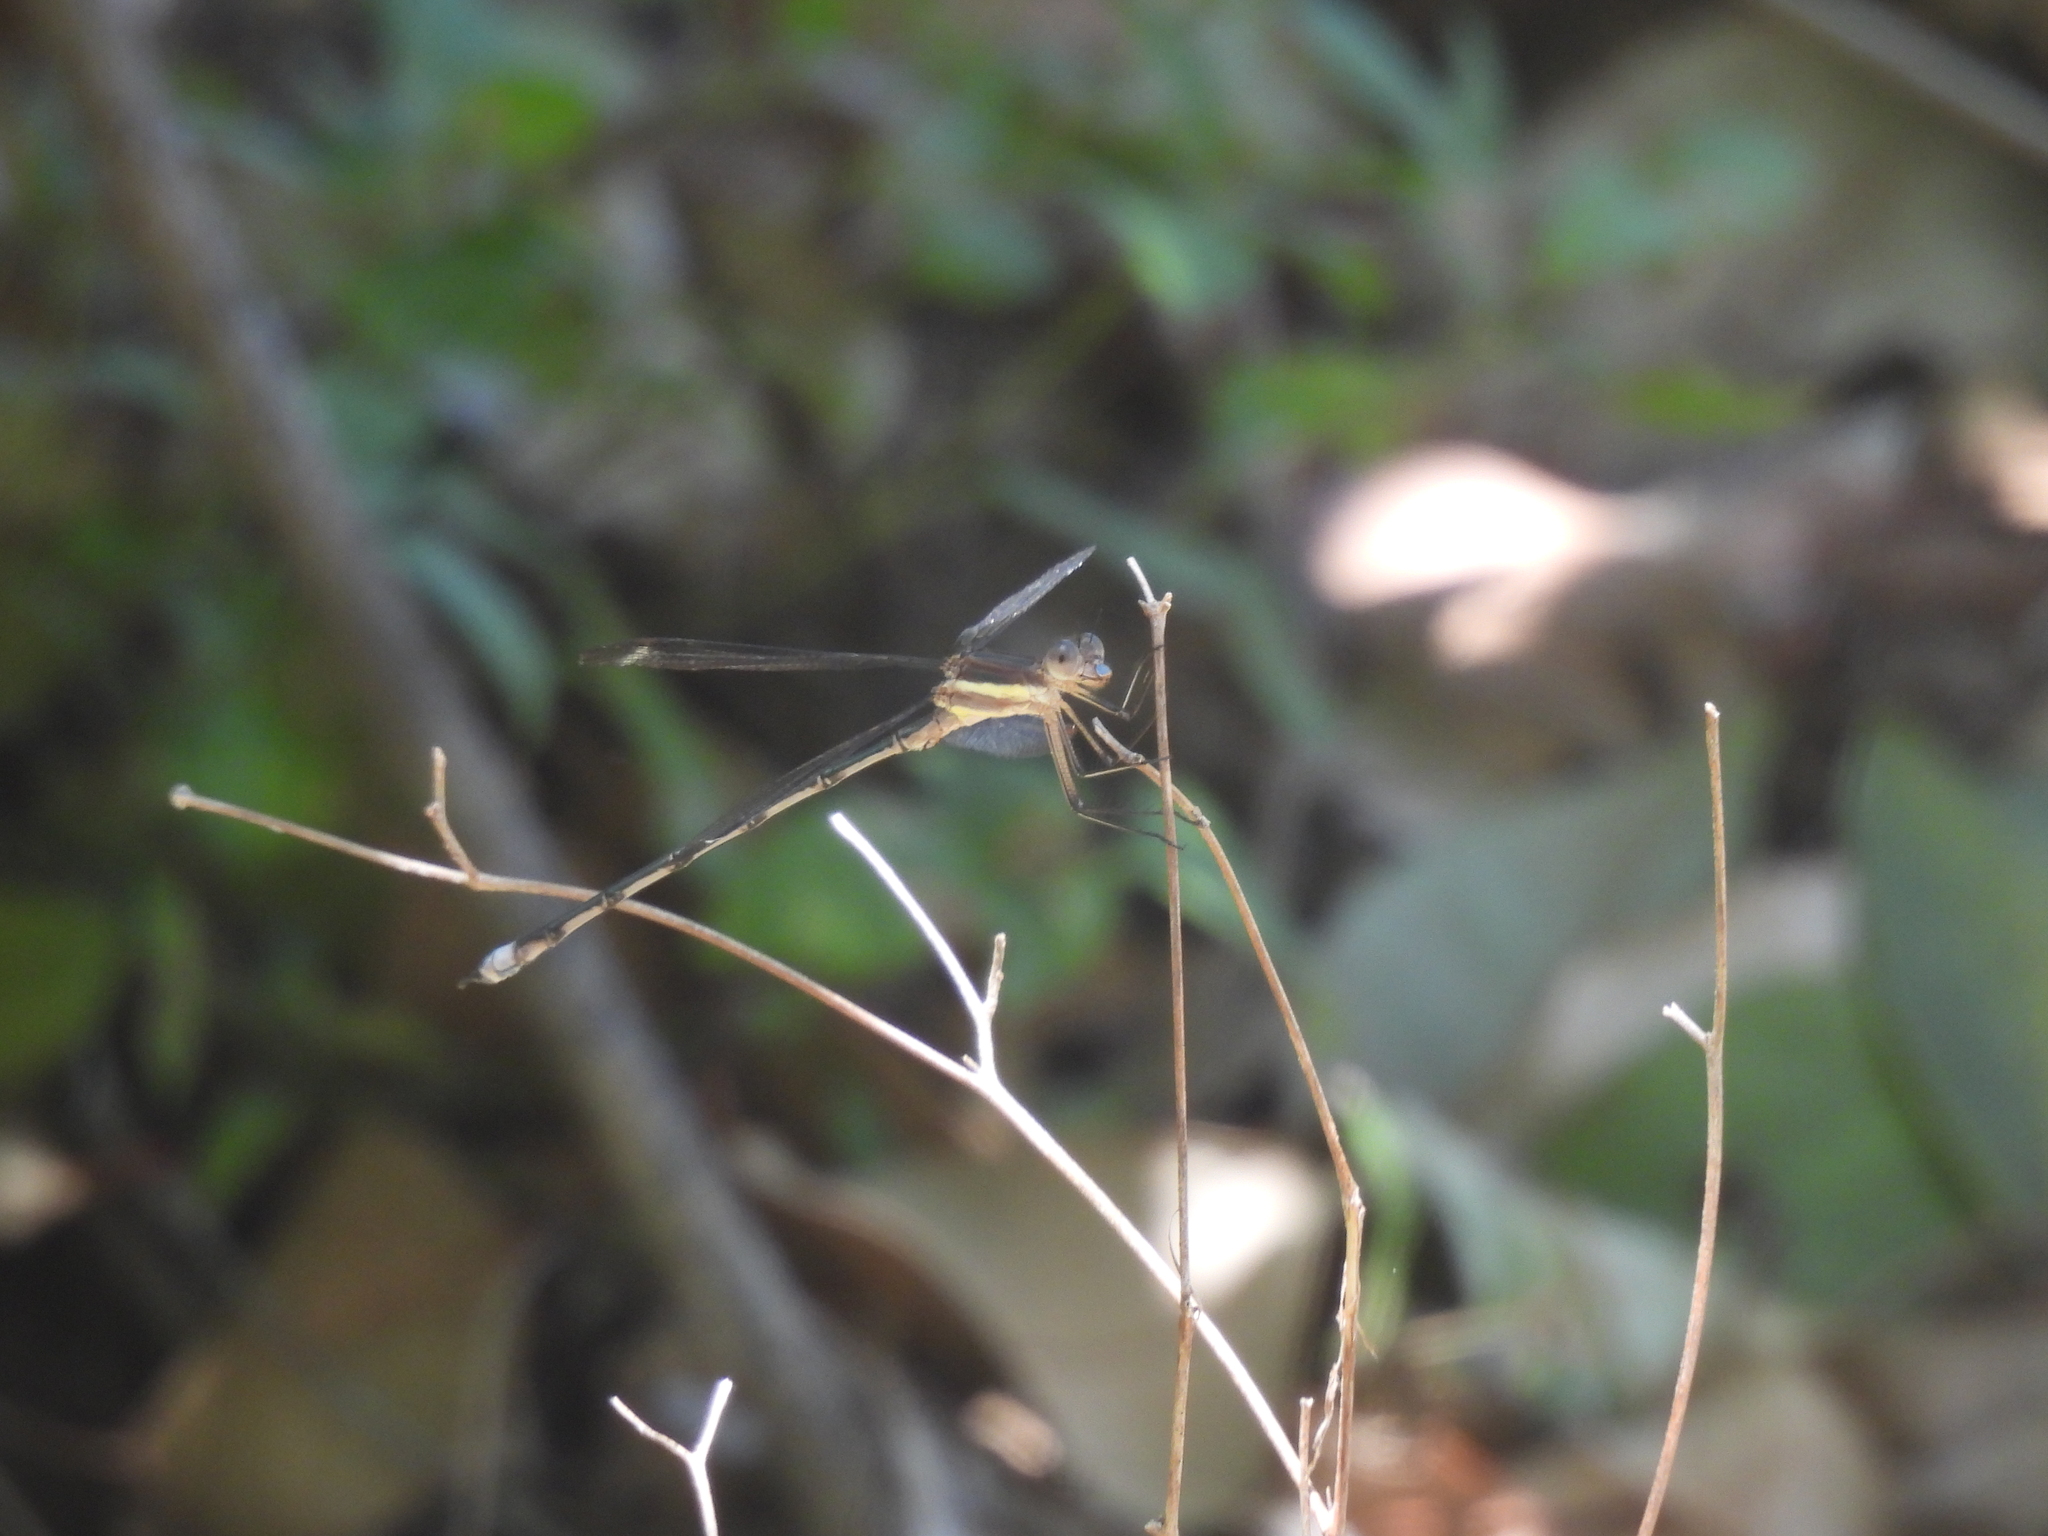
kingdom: Animalia
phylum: Arthropoda
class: Insecta
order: Odonata
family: Lestidae
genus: Archilestes
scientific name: Archilestes grandis
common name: Great spreadwing
